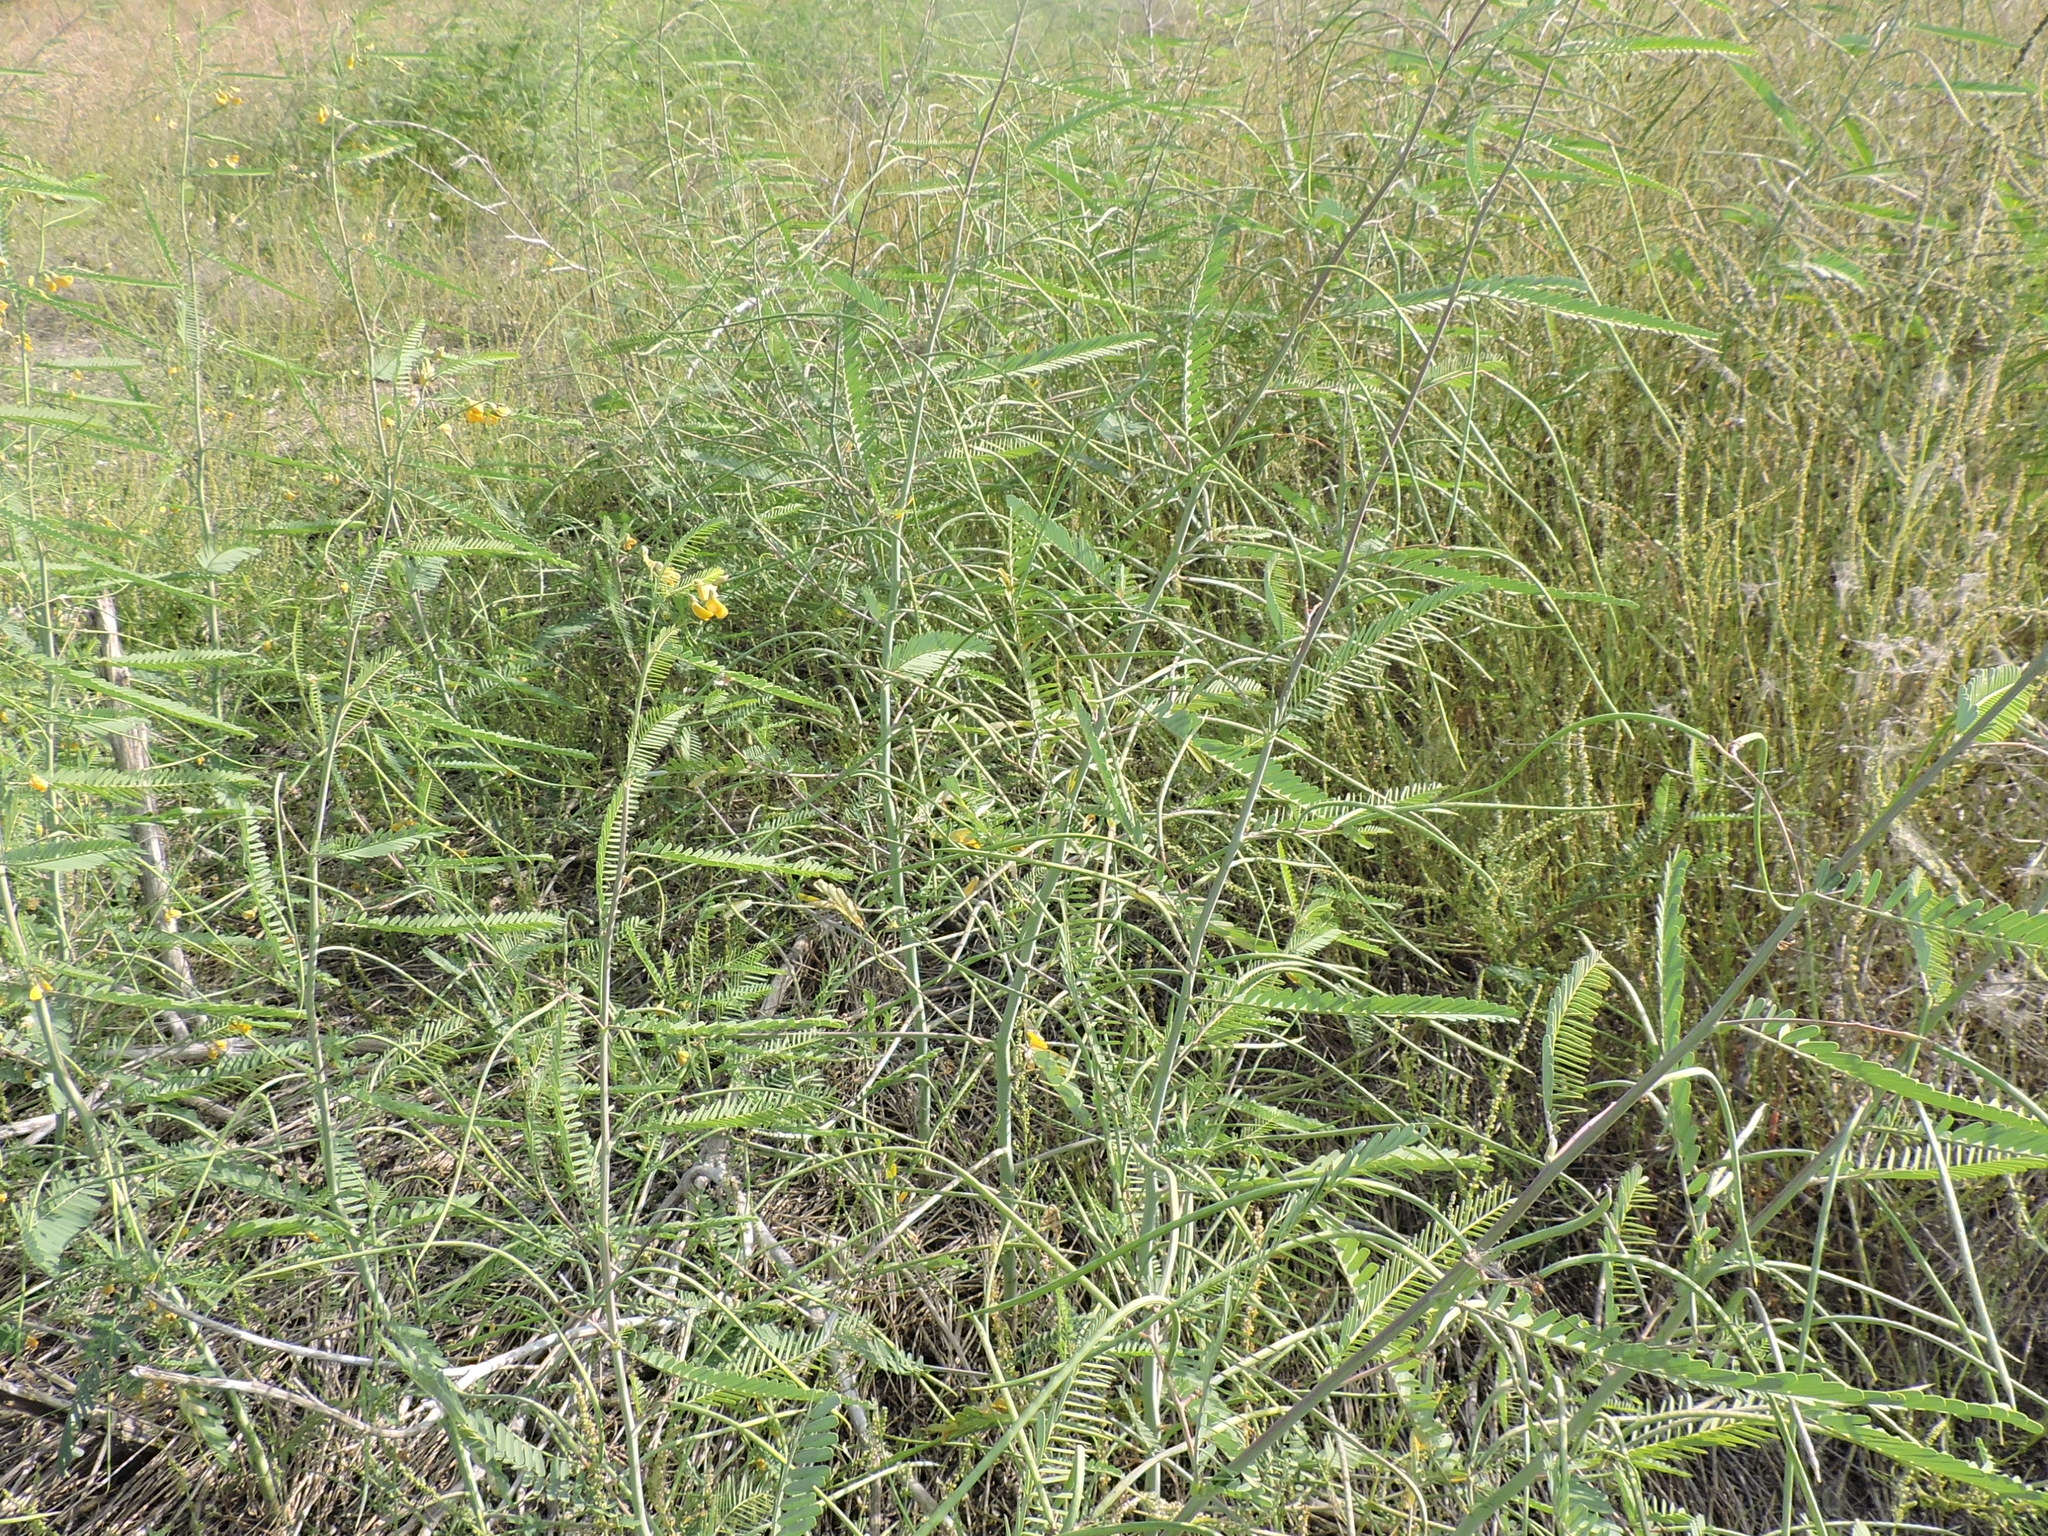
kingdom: Plantae
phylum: Tracheophyta
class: Magnoliopsida
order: Fabales
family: Fabaceae
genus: Sesbania
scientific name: Sesbania herbacea
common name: Bigpod sesbania
